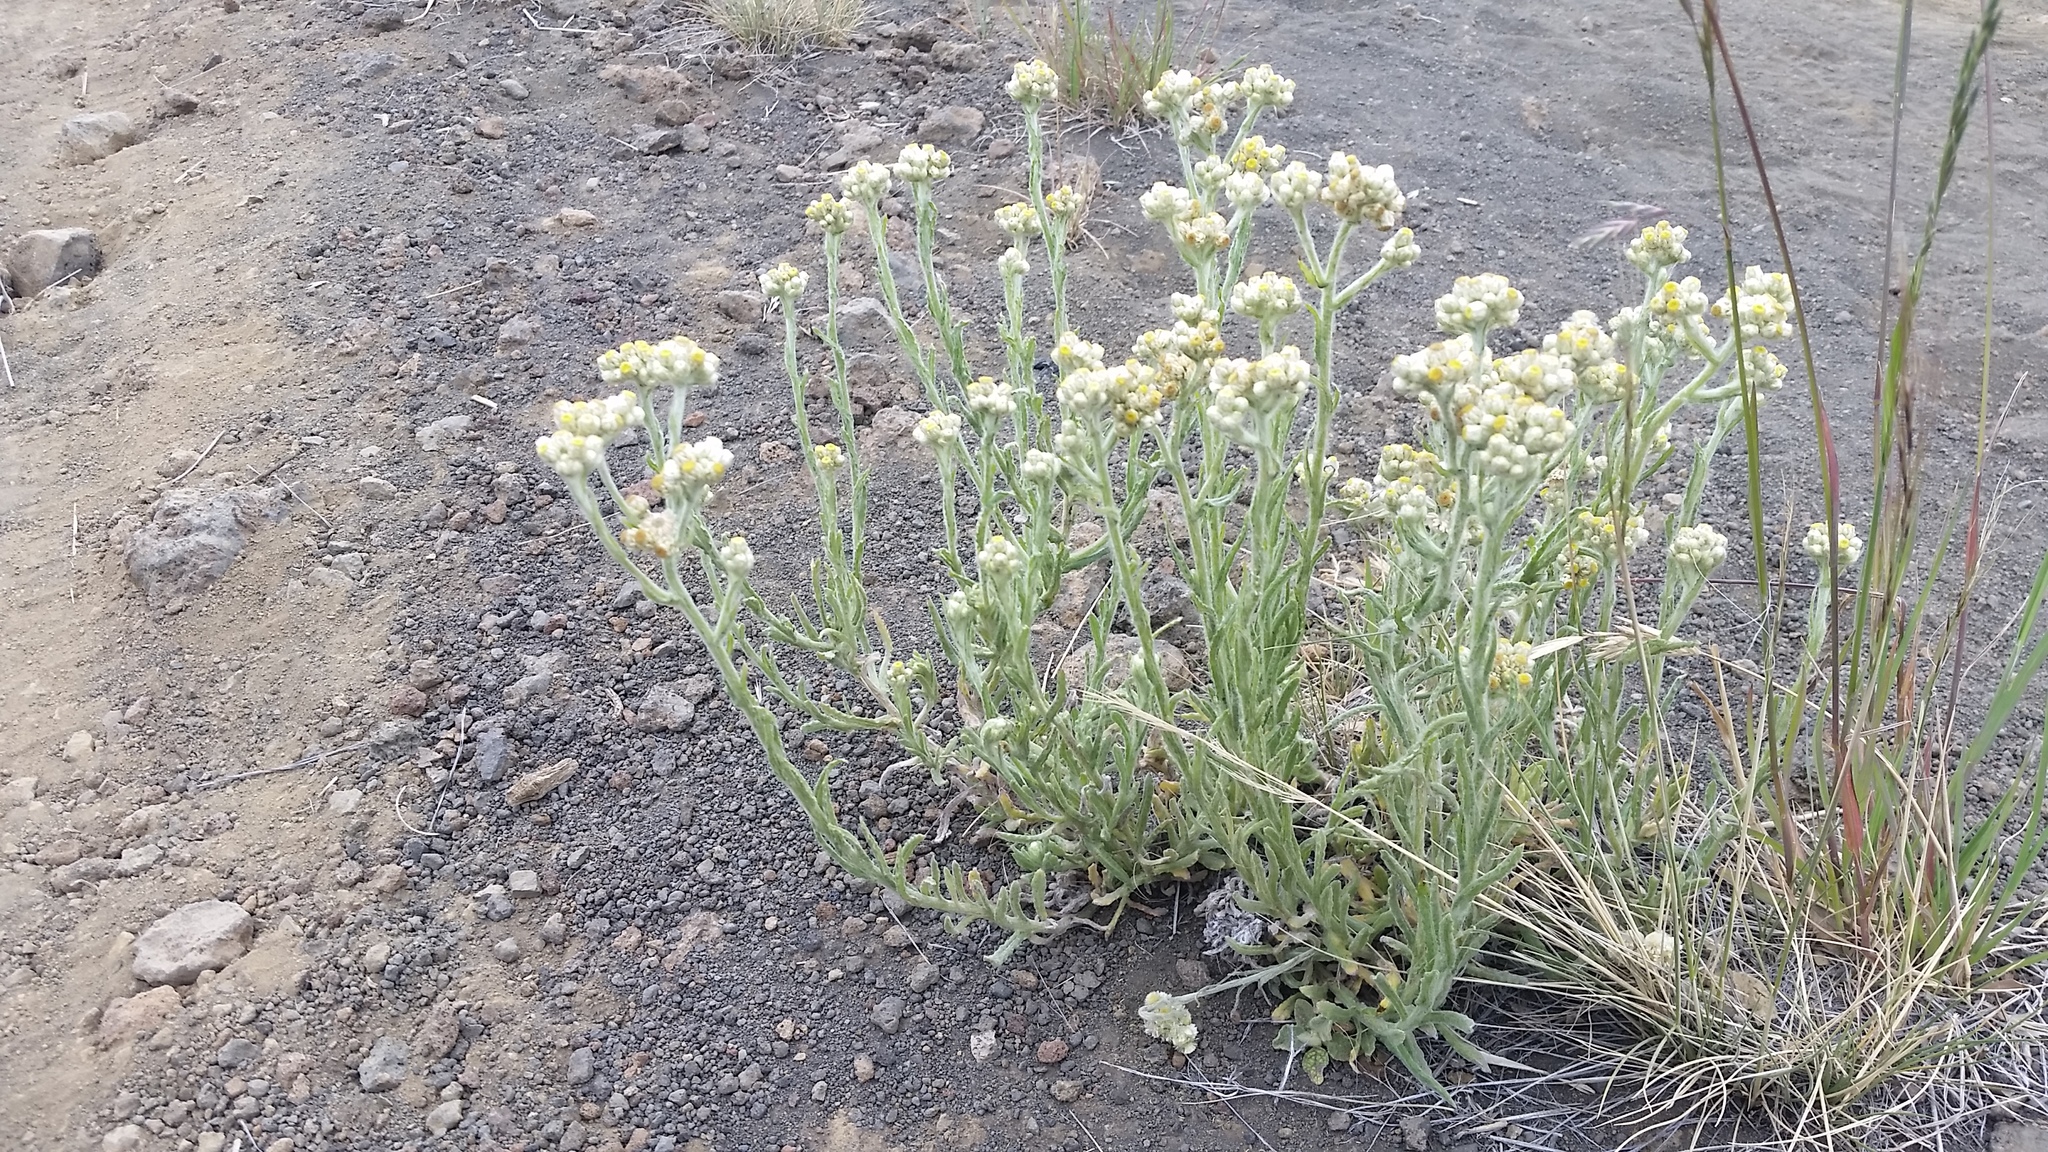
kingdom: Plantae
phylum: Tracheophyta
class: Magnoliopsida
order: Asterales
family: Asteraceae
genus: Pseudognaphalium
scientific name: Pseudognaphalium sandwicensium
